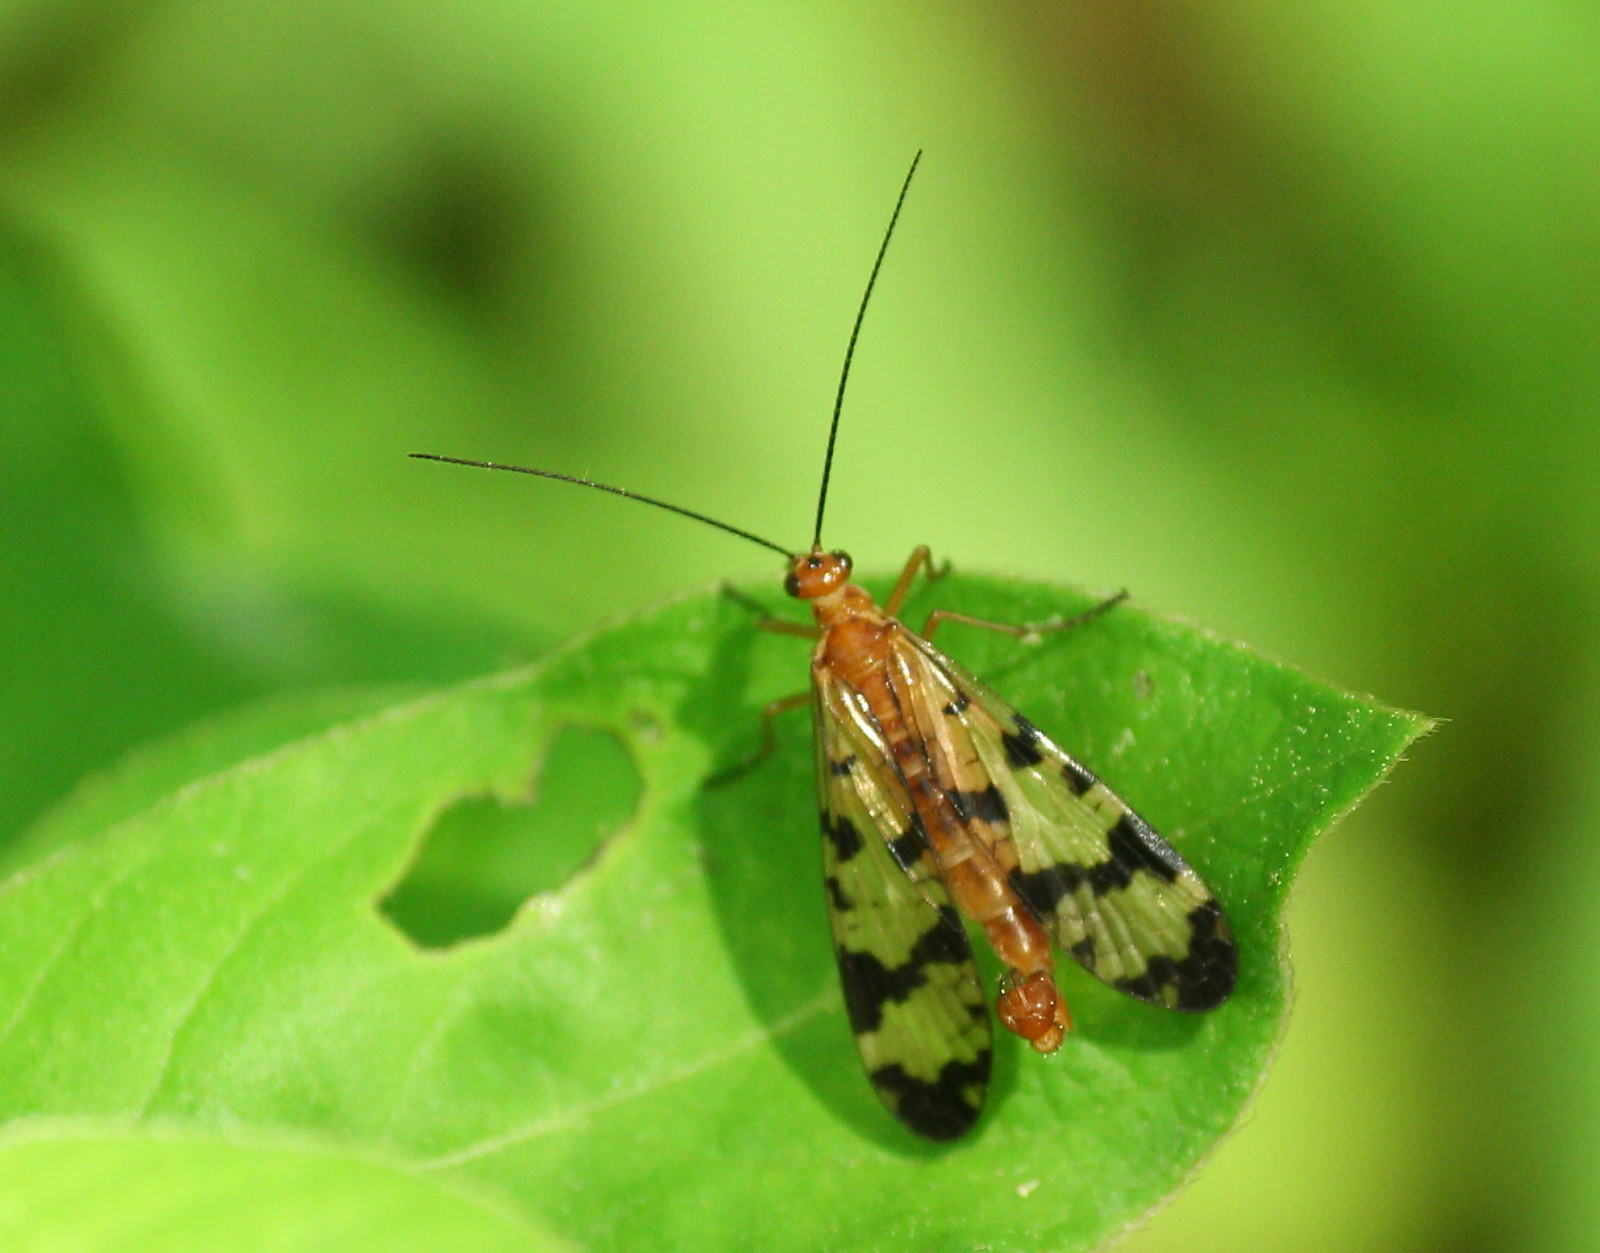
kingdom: Animalia
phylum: Arthropoda
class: Insecta
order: Mecoptera
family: Panorpidae
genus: Panorpa
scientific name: Panorpa insolens
